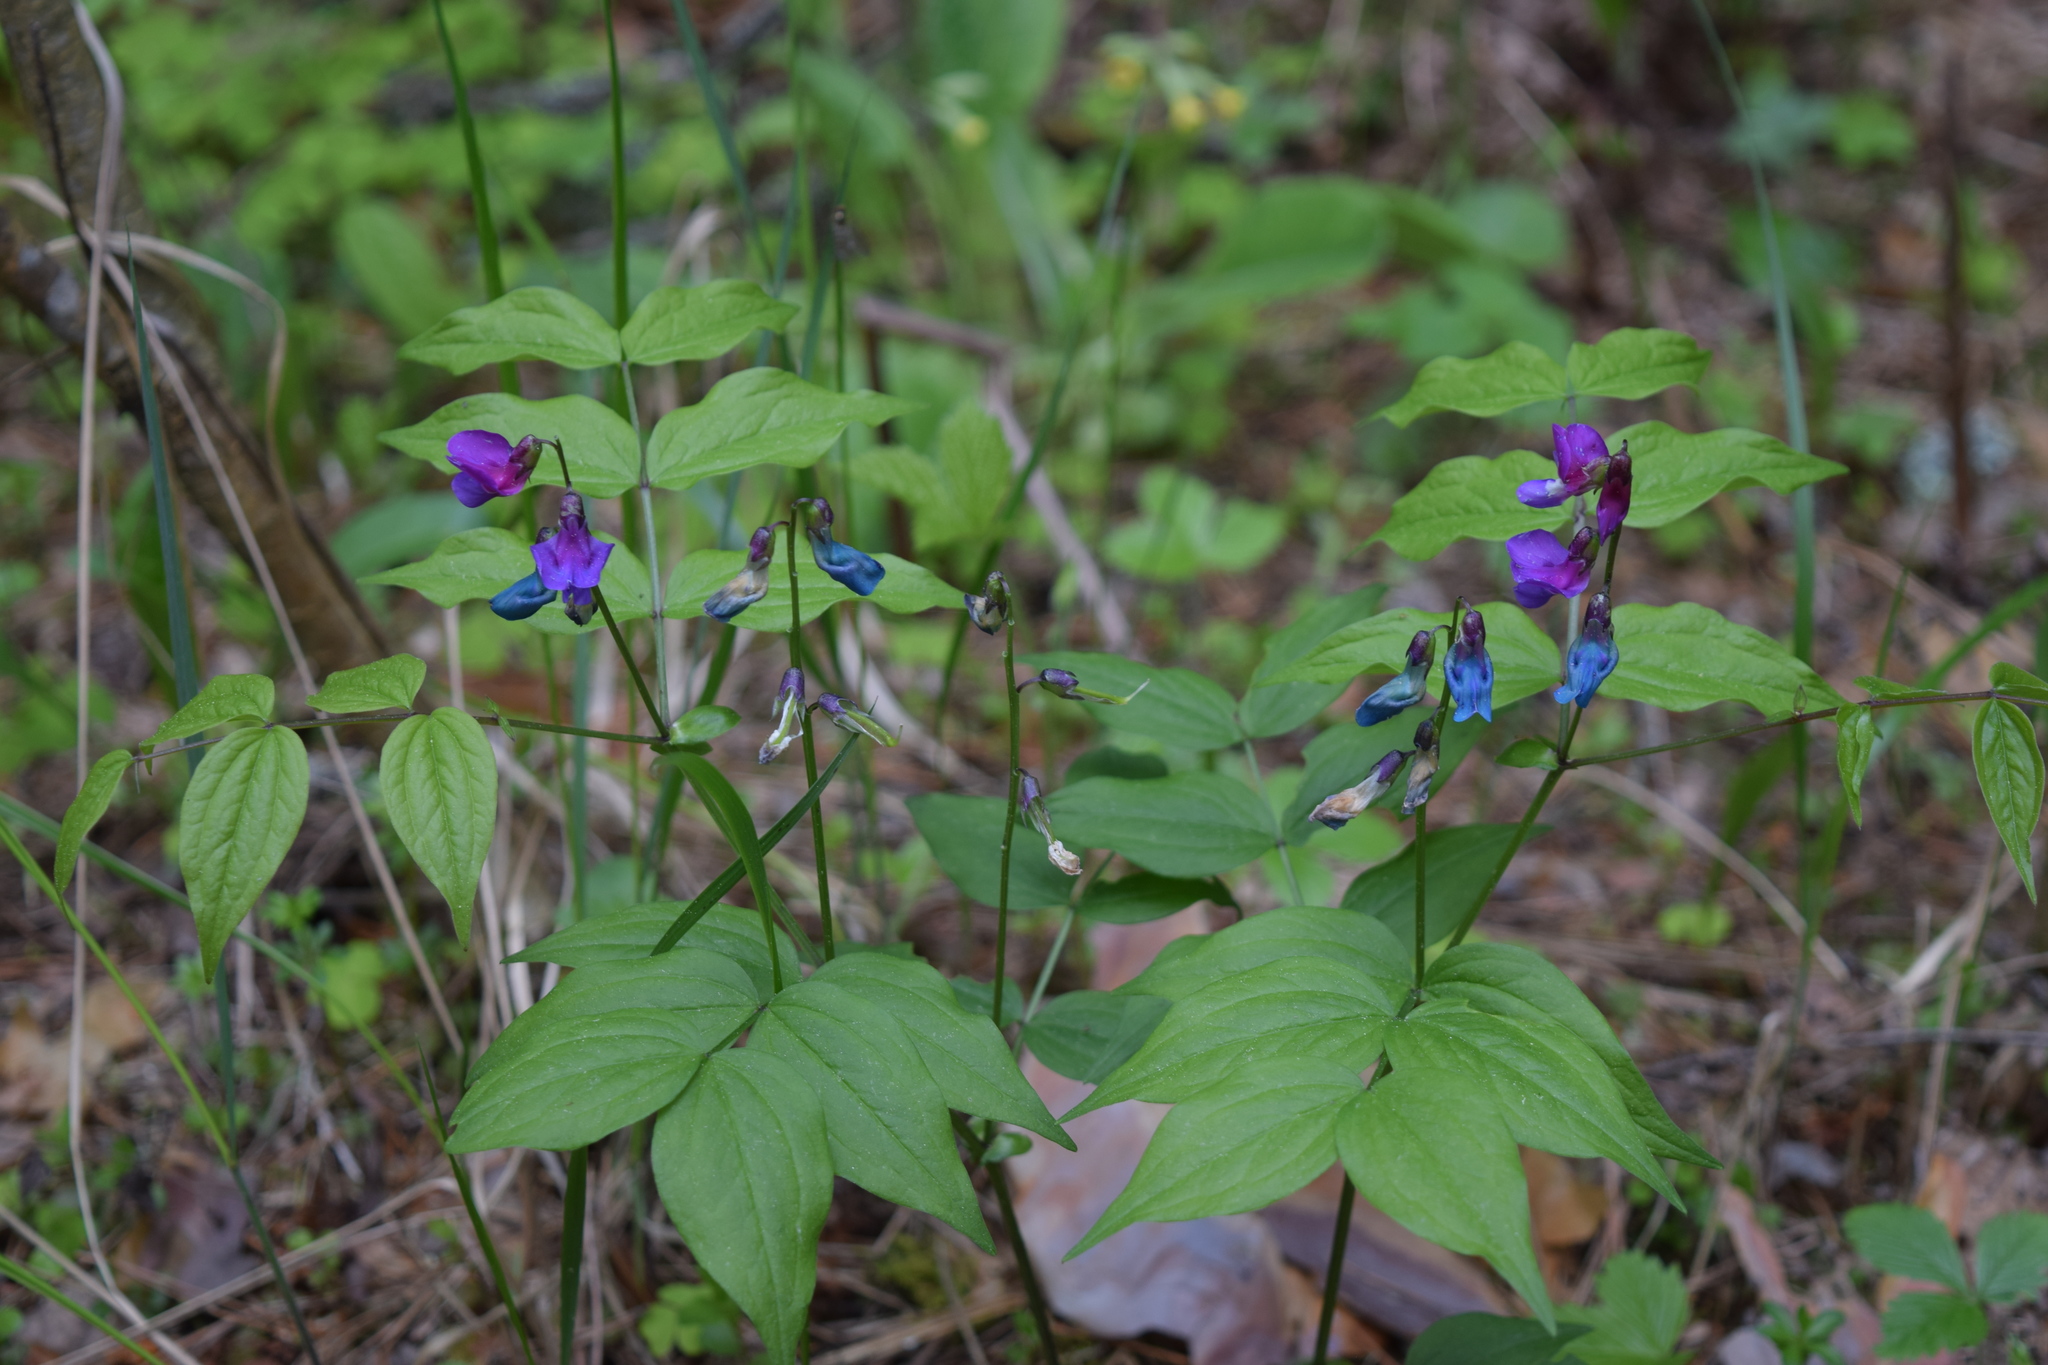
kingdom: Plantae
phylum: Tracheophyta
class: Magnoliopsida
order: Fabales
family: Fabaceae
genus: Lathyrus
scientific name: Lathyrus vernus
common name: Spring pea
